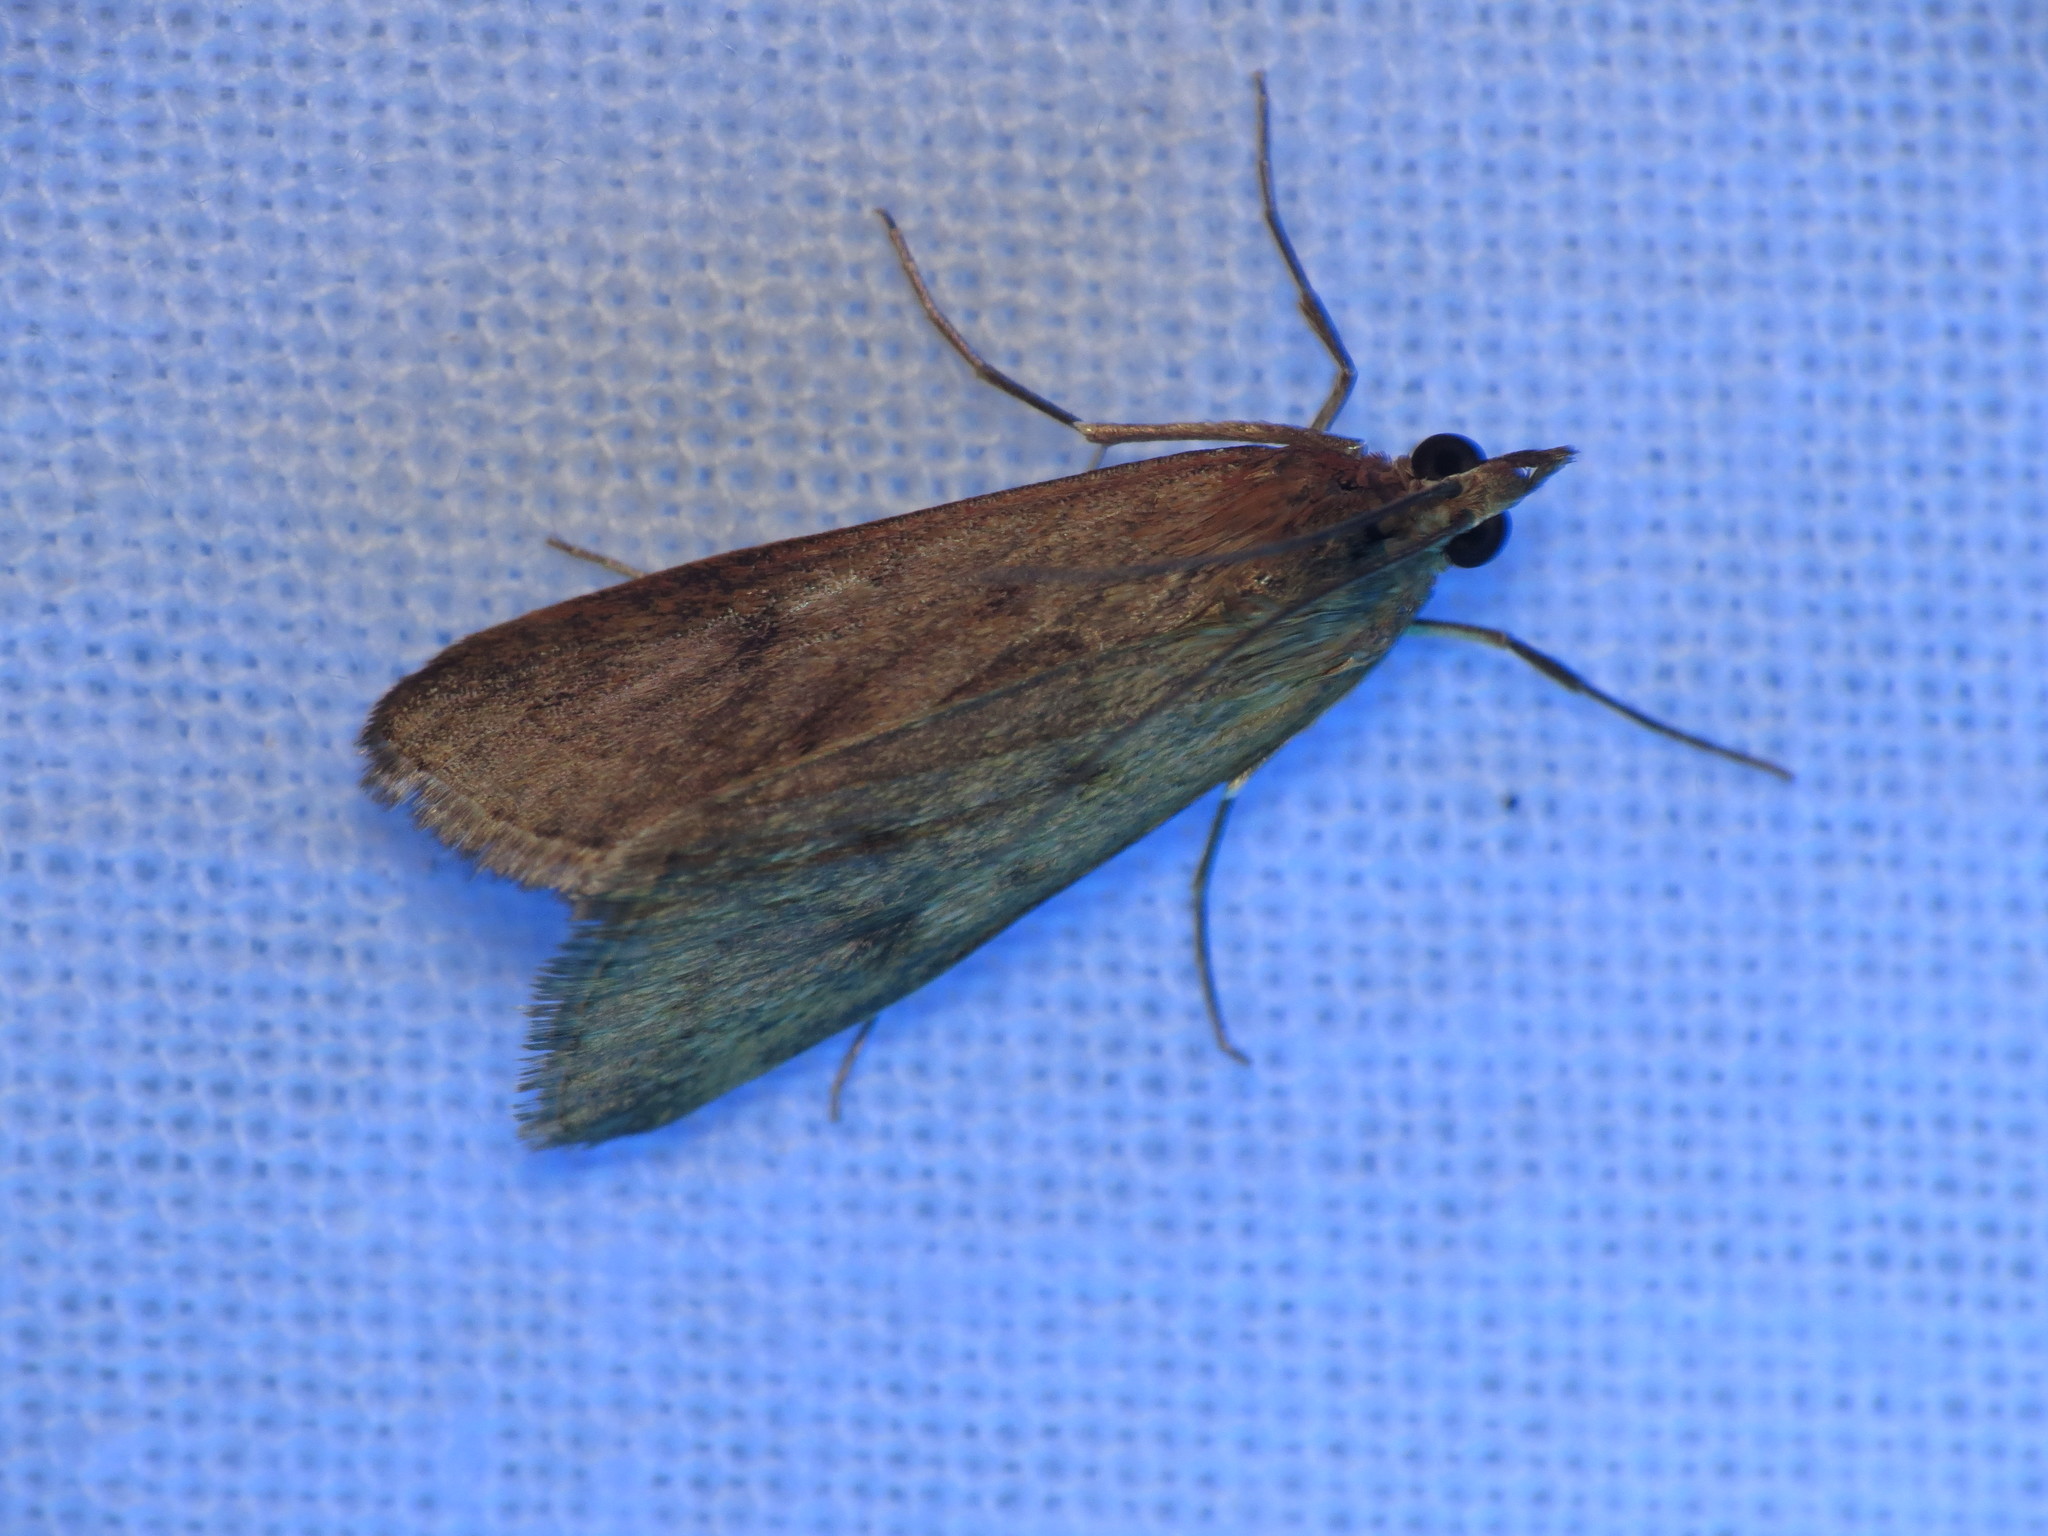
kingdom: Animalia
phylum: Arthropoda
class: Insecta
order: Lepidoptera
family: Crambidae
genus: Achyra
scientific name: Achyra affinitalis
